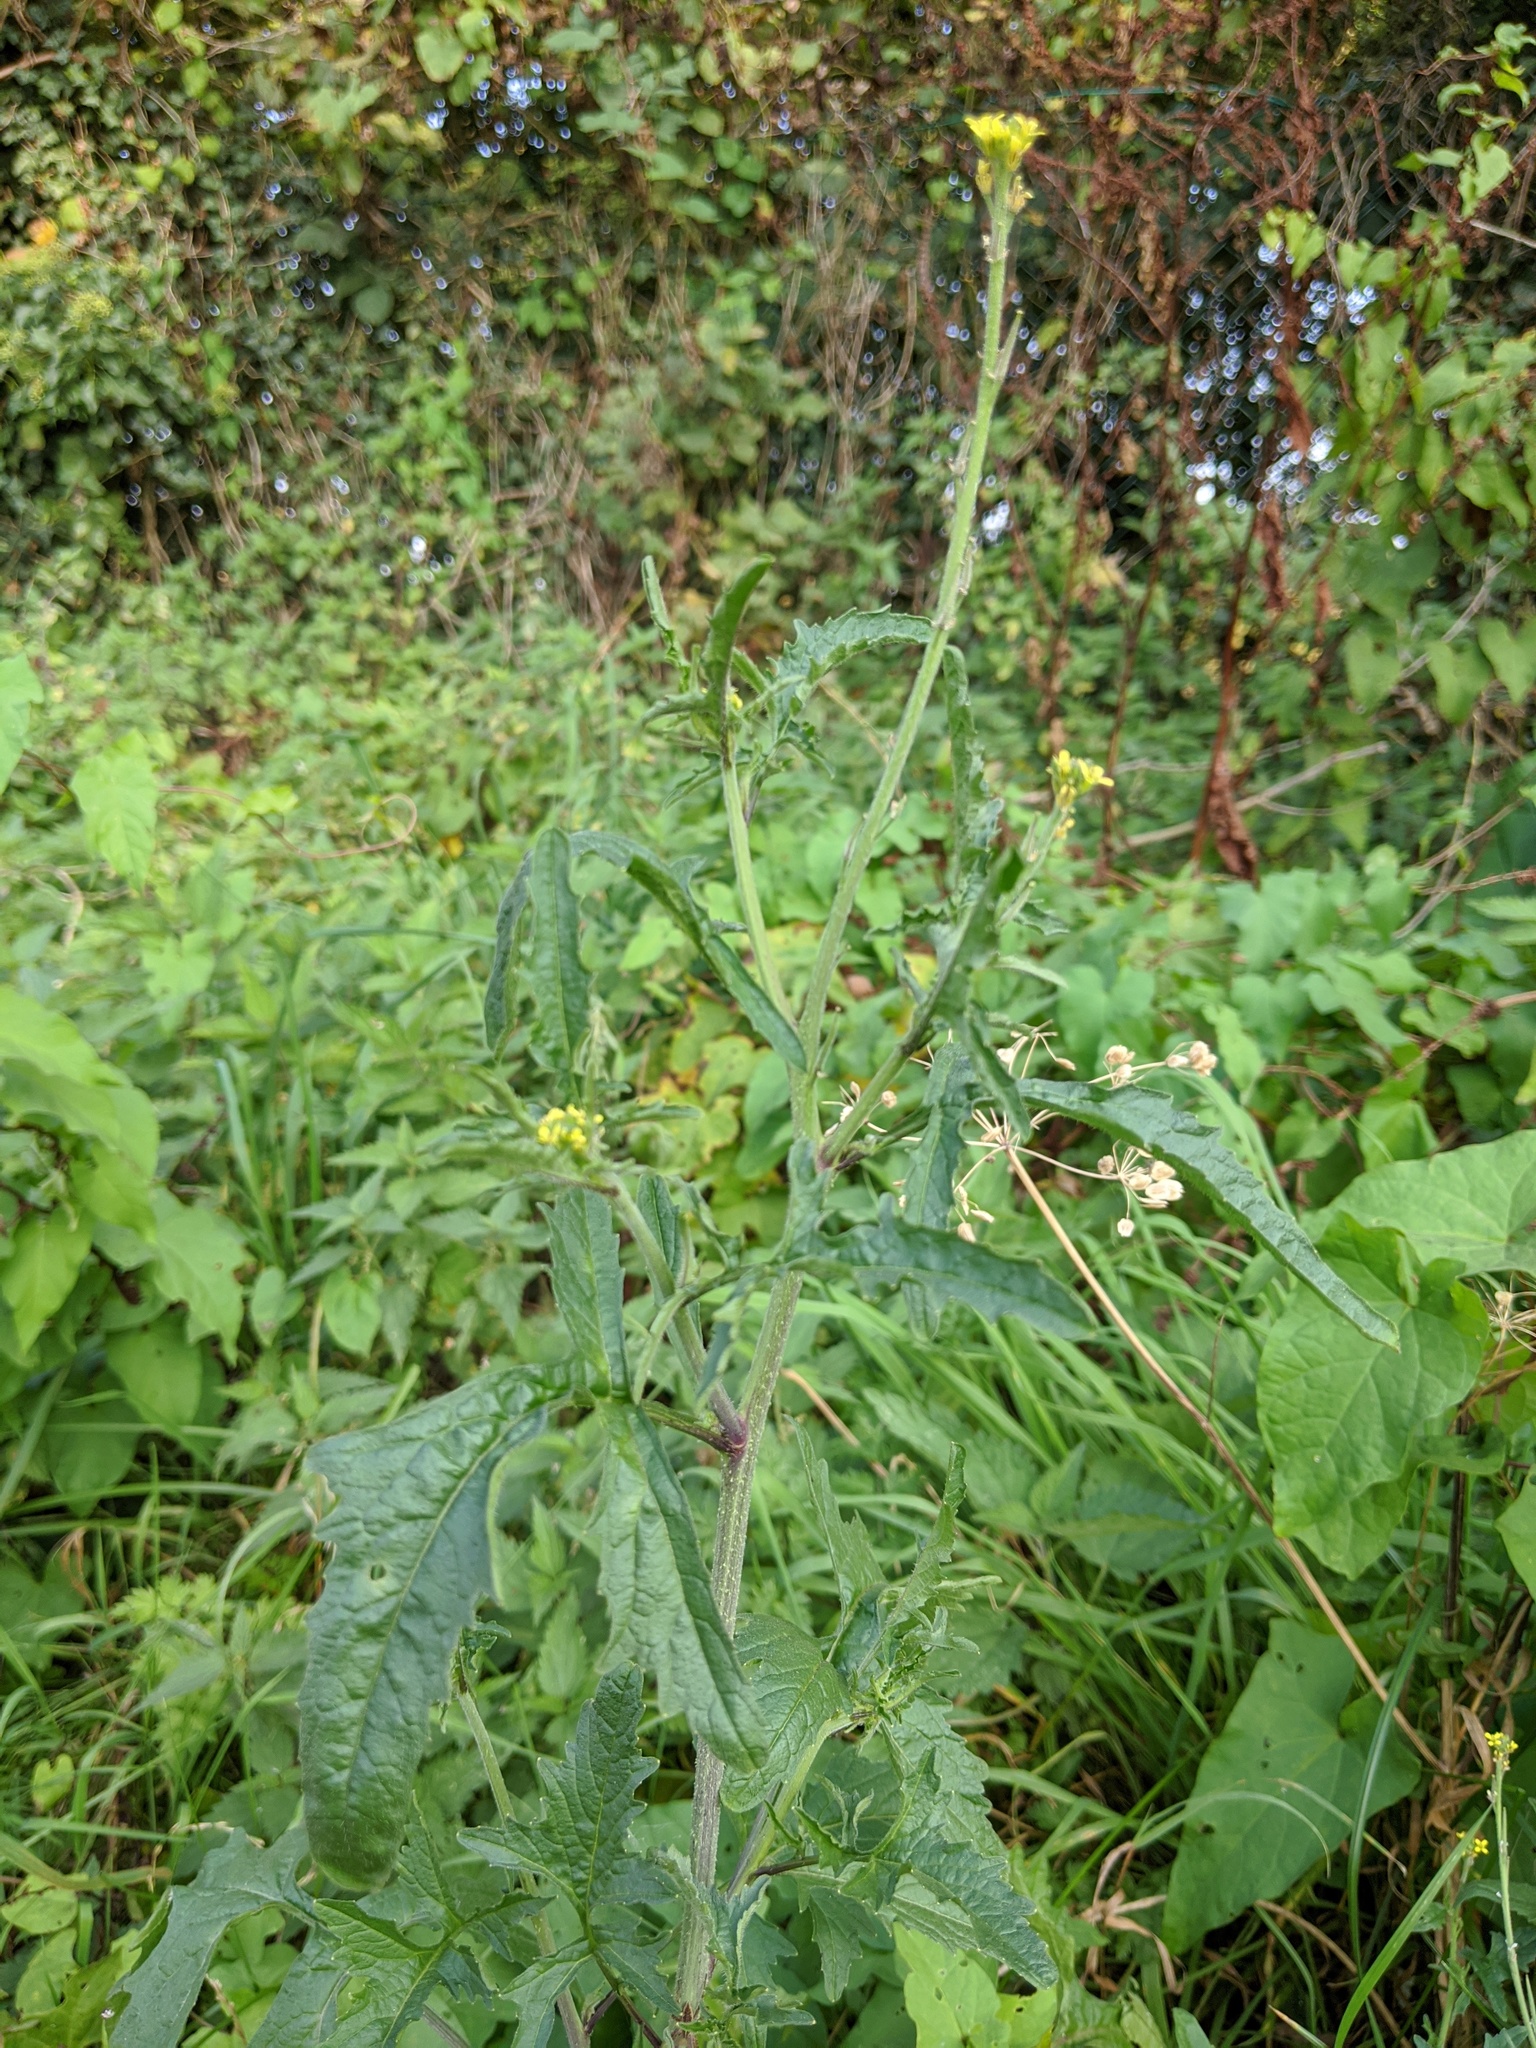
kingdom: Plantae
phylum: Tracheophyta
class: Magnoliopsida
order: Brassicales
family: Brassicaceae
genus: Sisymbrium
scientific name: Sisymbrium officinale
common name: Hedge mustard
